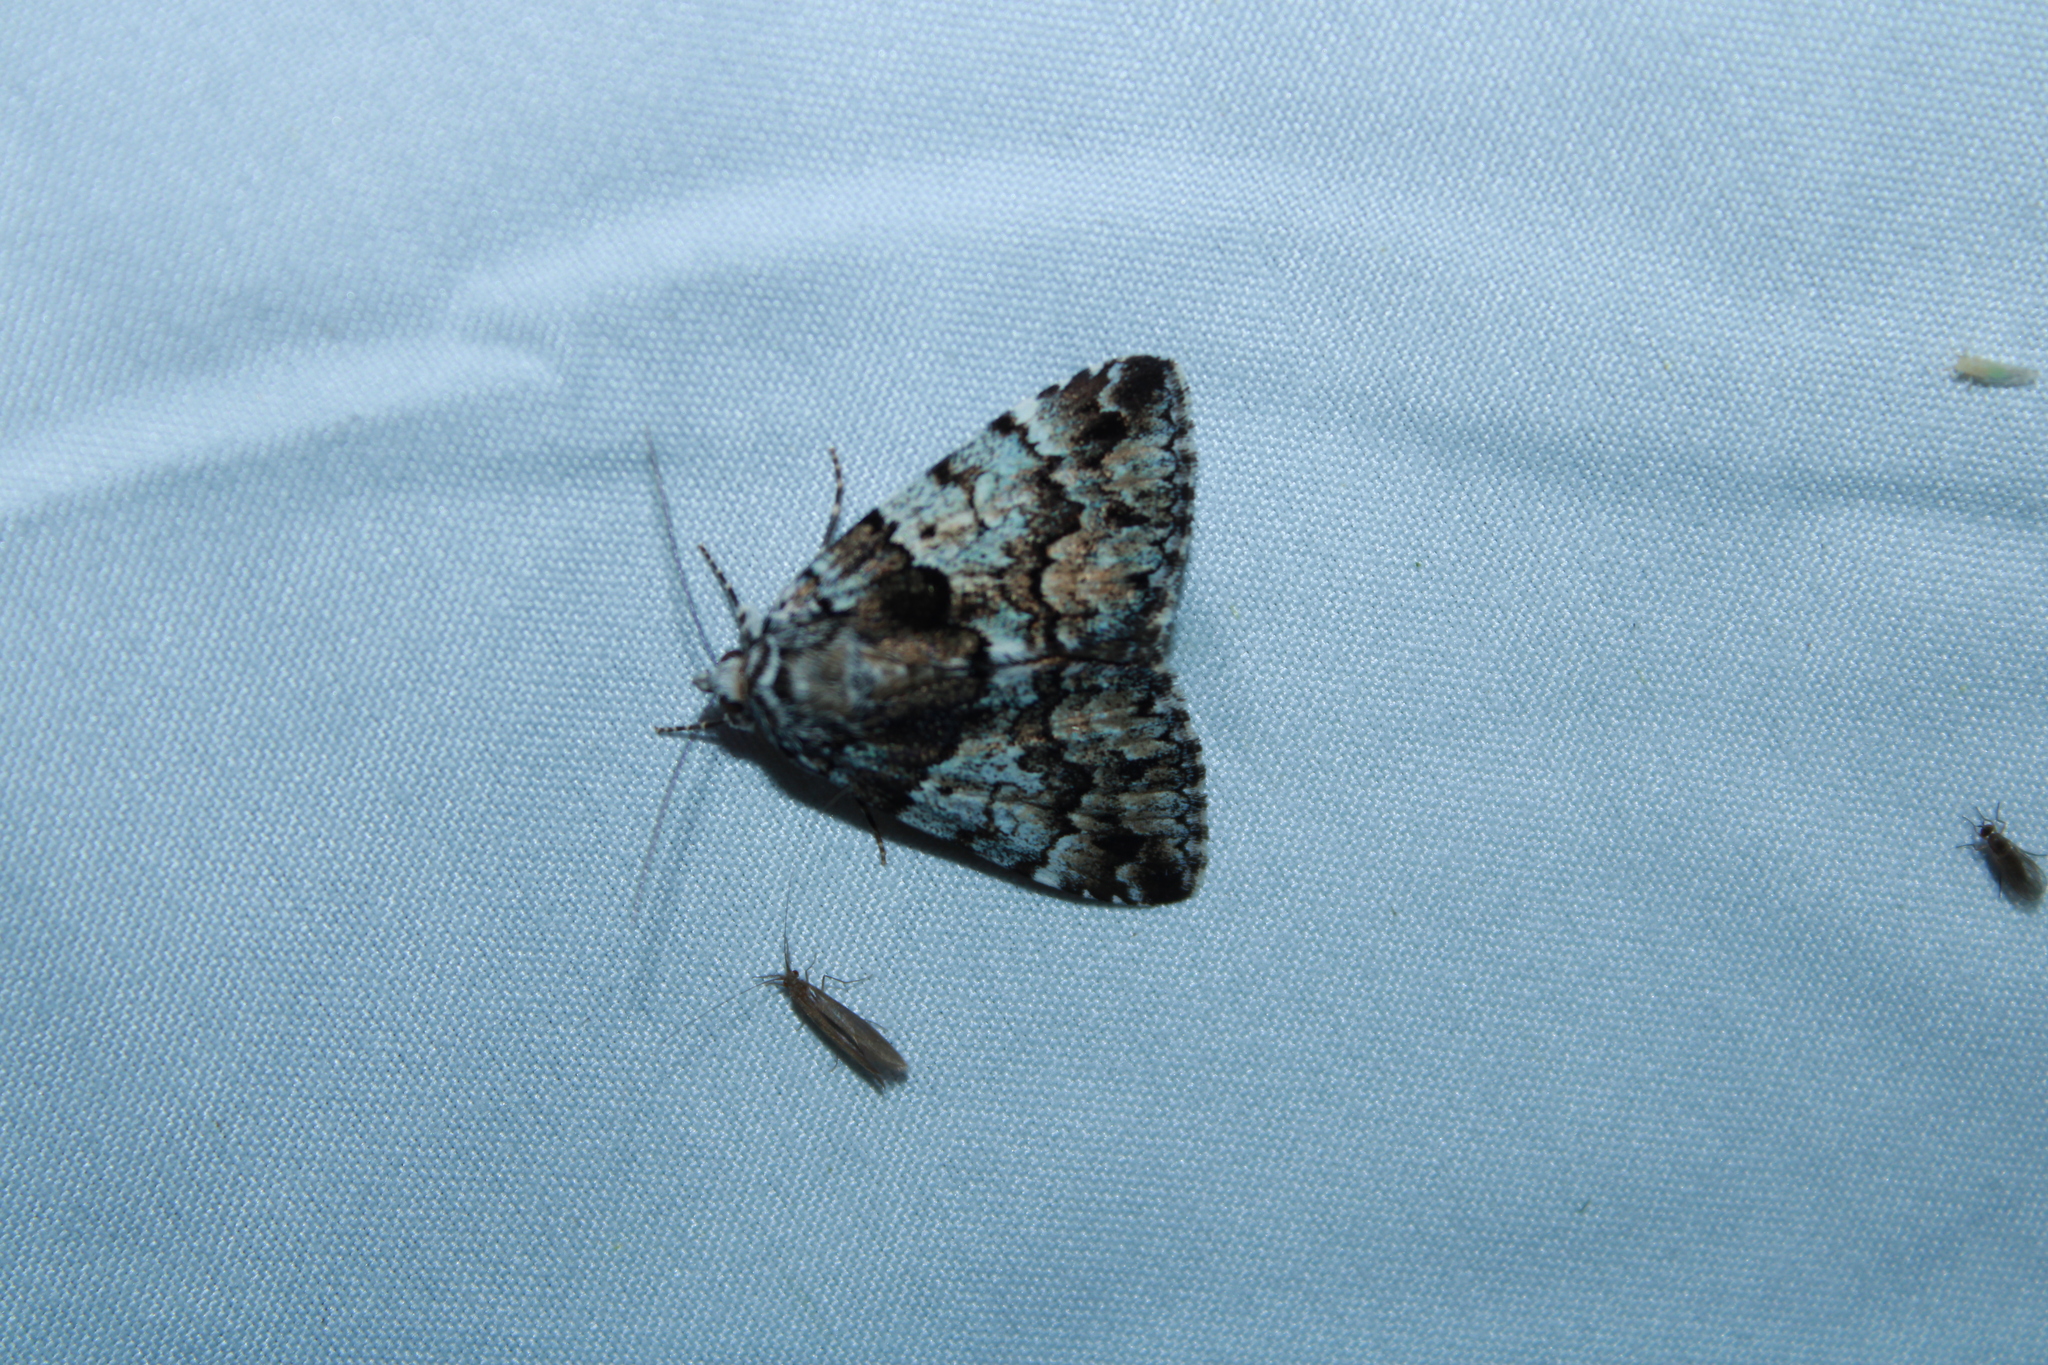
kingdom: Animalia
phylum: Arthropoda
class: Insecta
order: Lepidoptera
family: Erebidae
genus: Allotria
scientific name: Allotria elonympha
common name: False underwing
